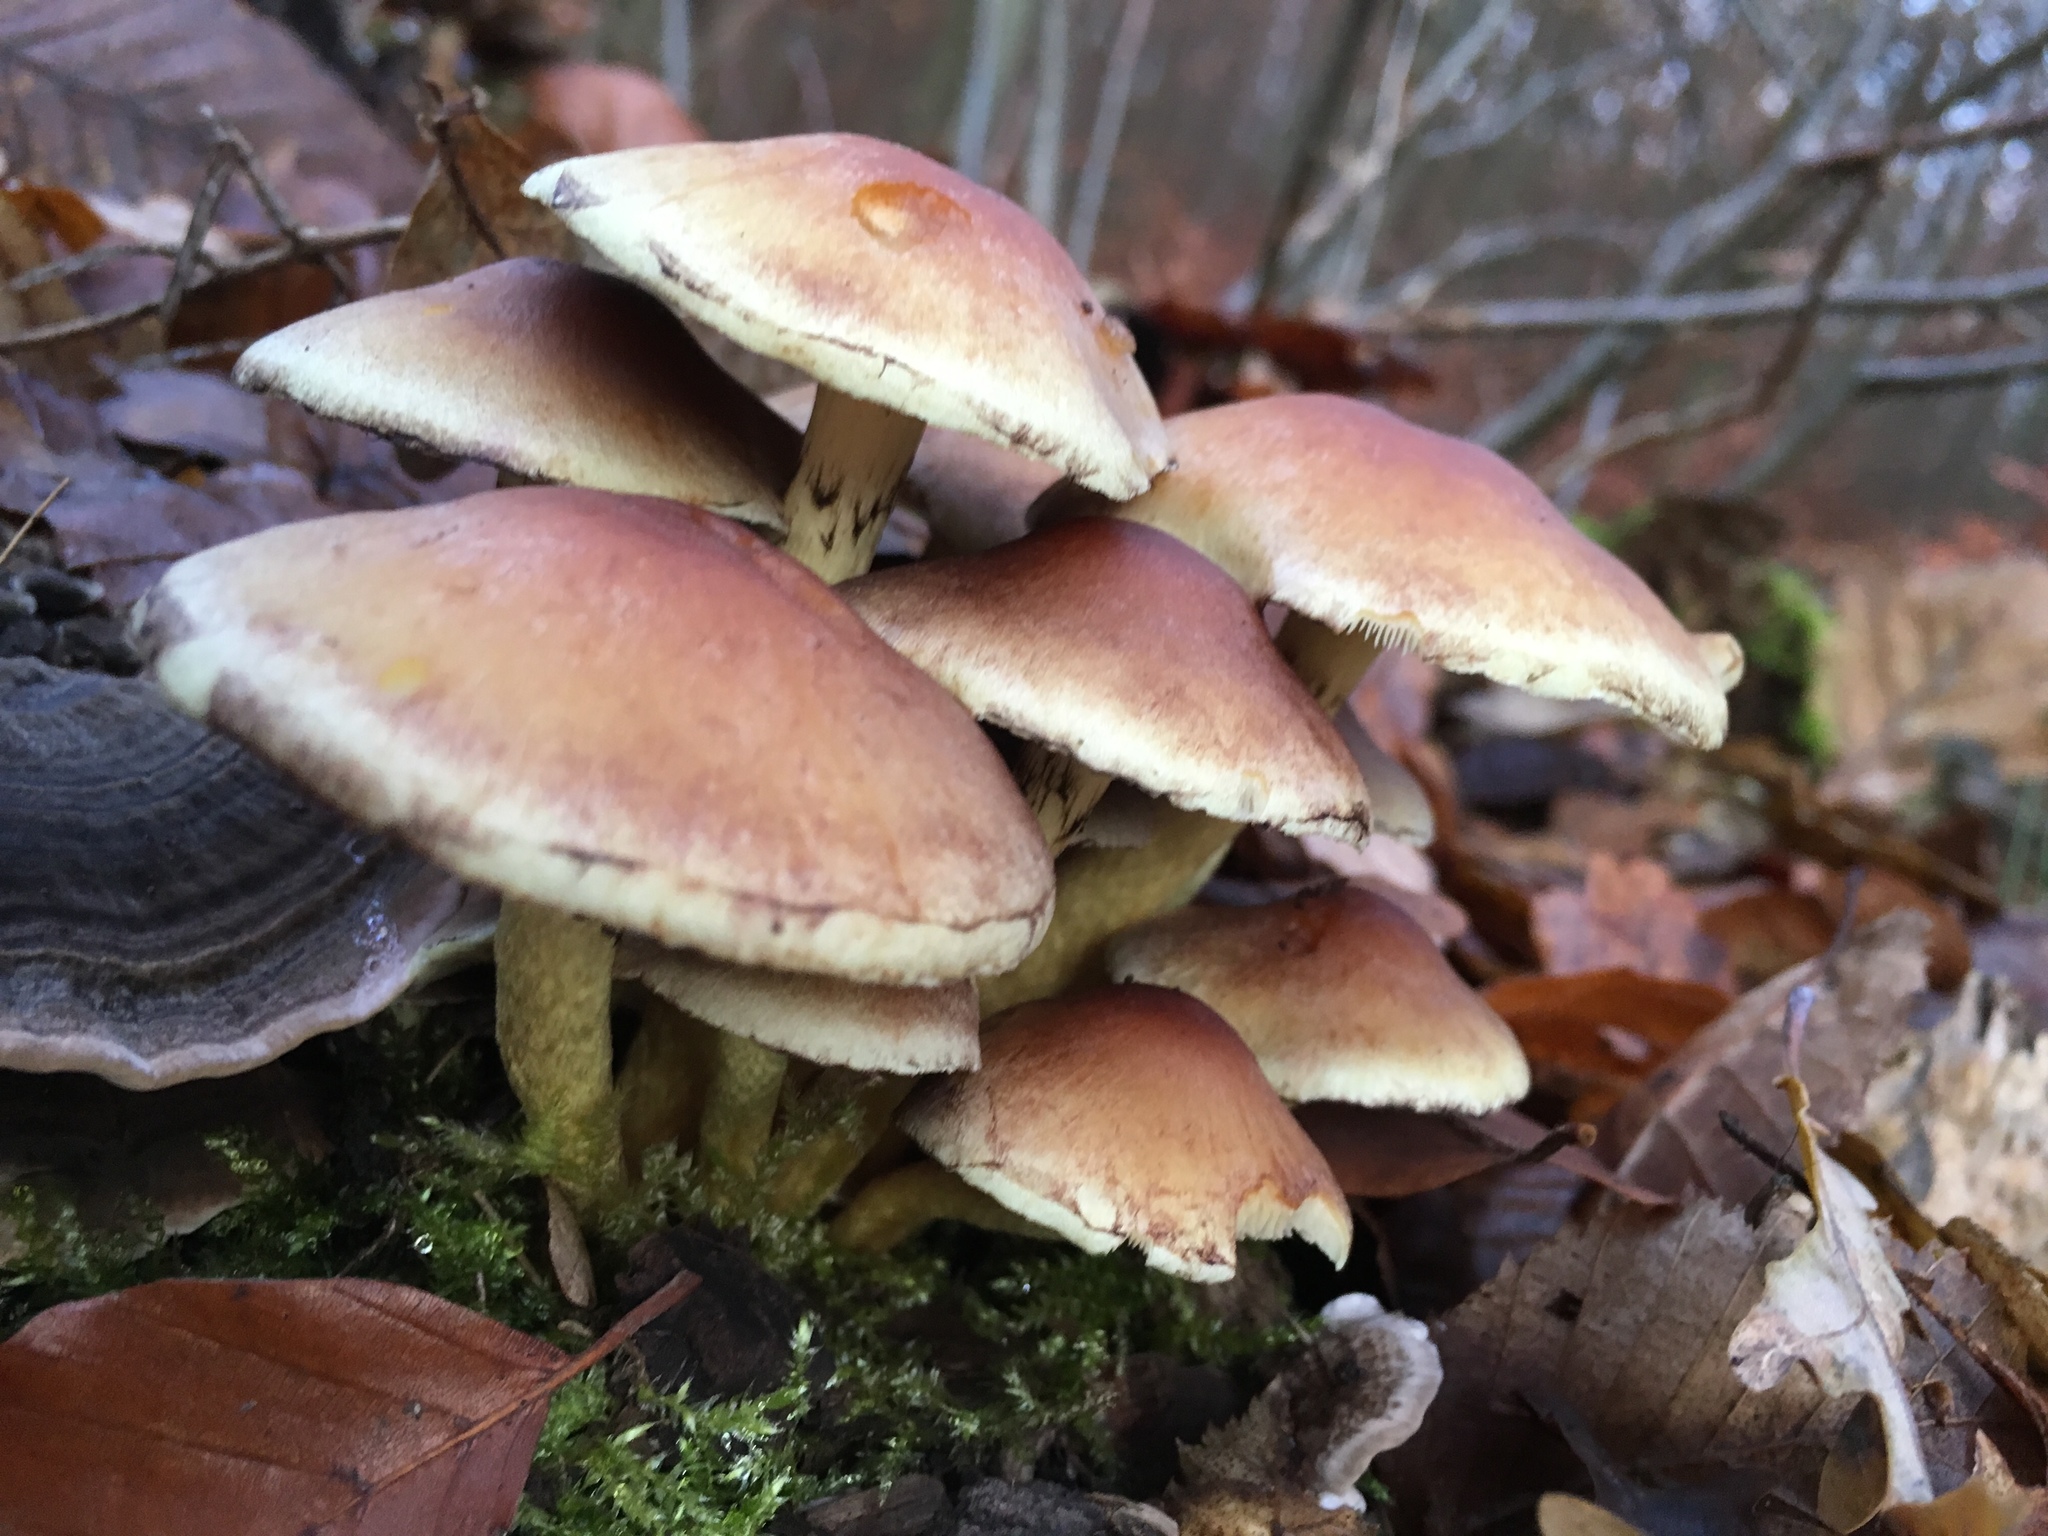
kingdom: Fungi
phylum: Basidiomycota
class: Agaricomycetes
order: Agaricales
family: Strophariaceae
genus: Hypholoma
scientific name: Hypholoma fasciculare
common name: Sulphur tuft
